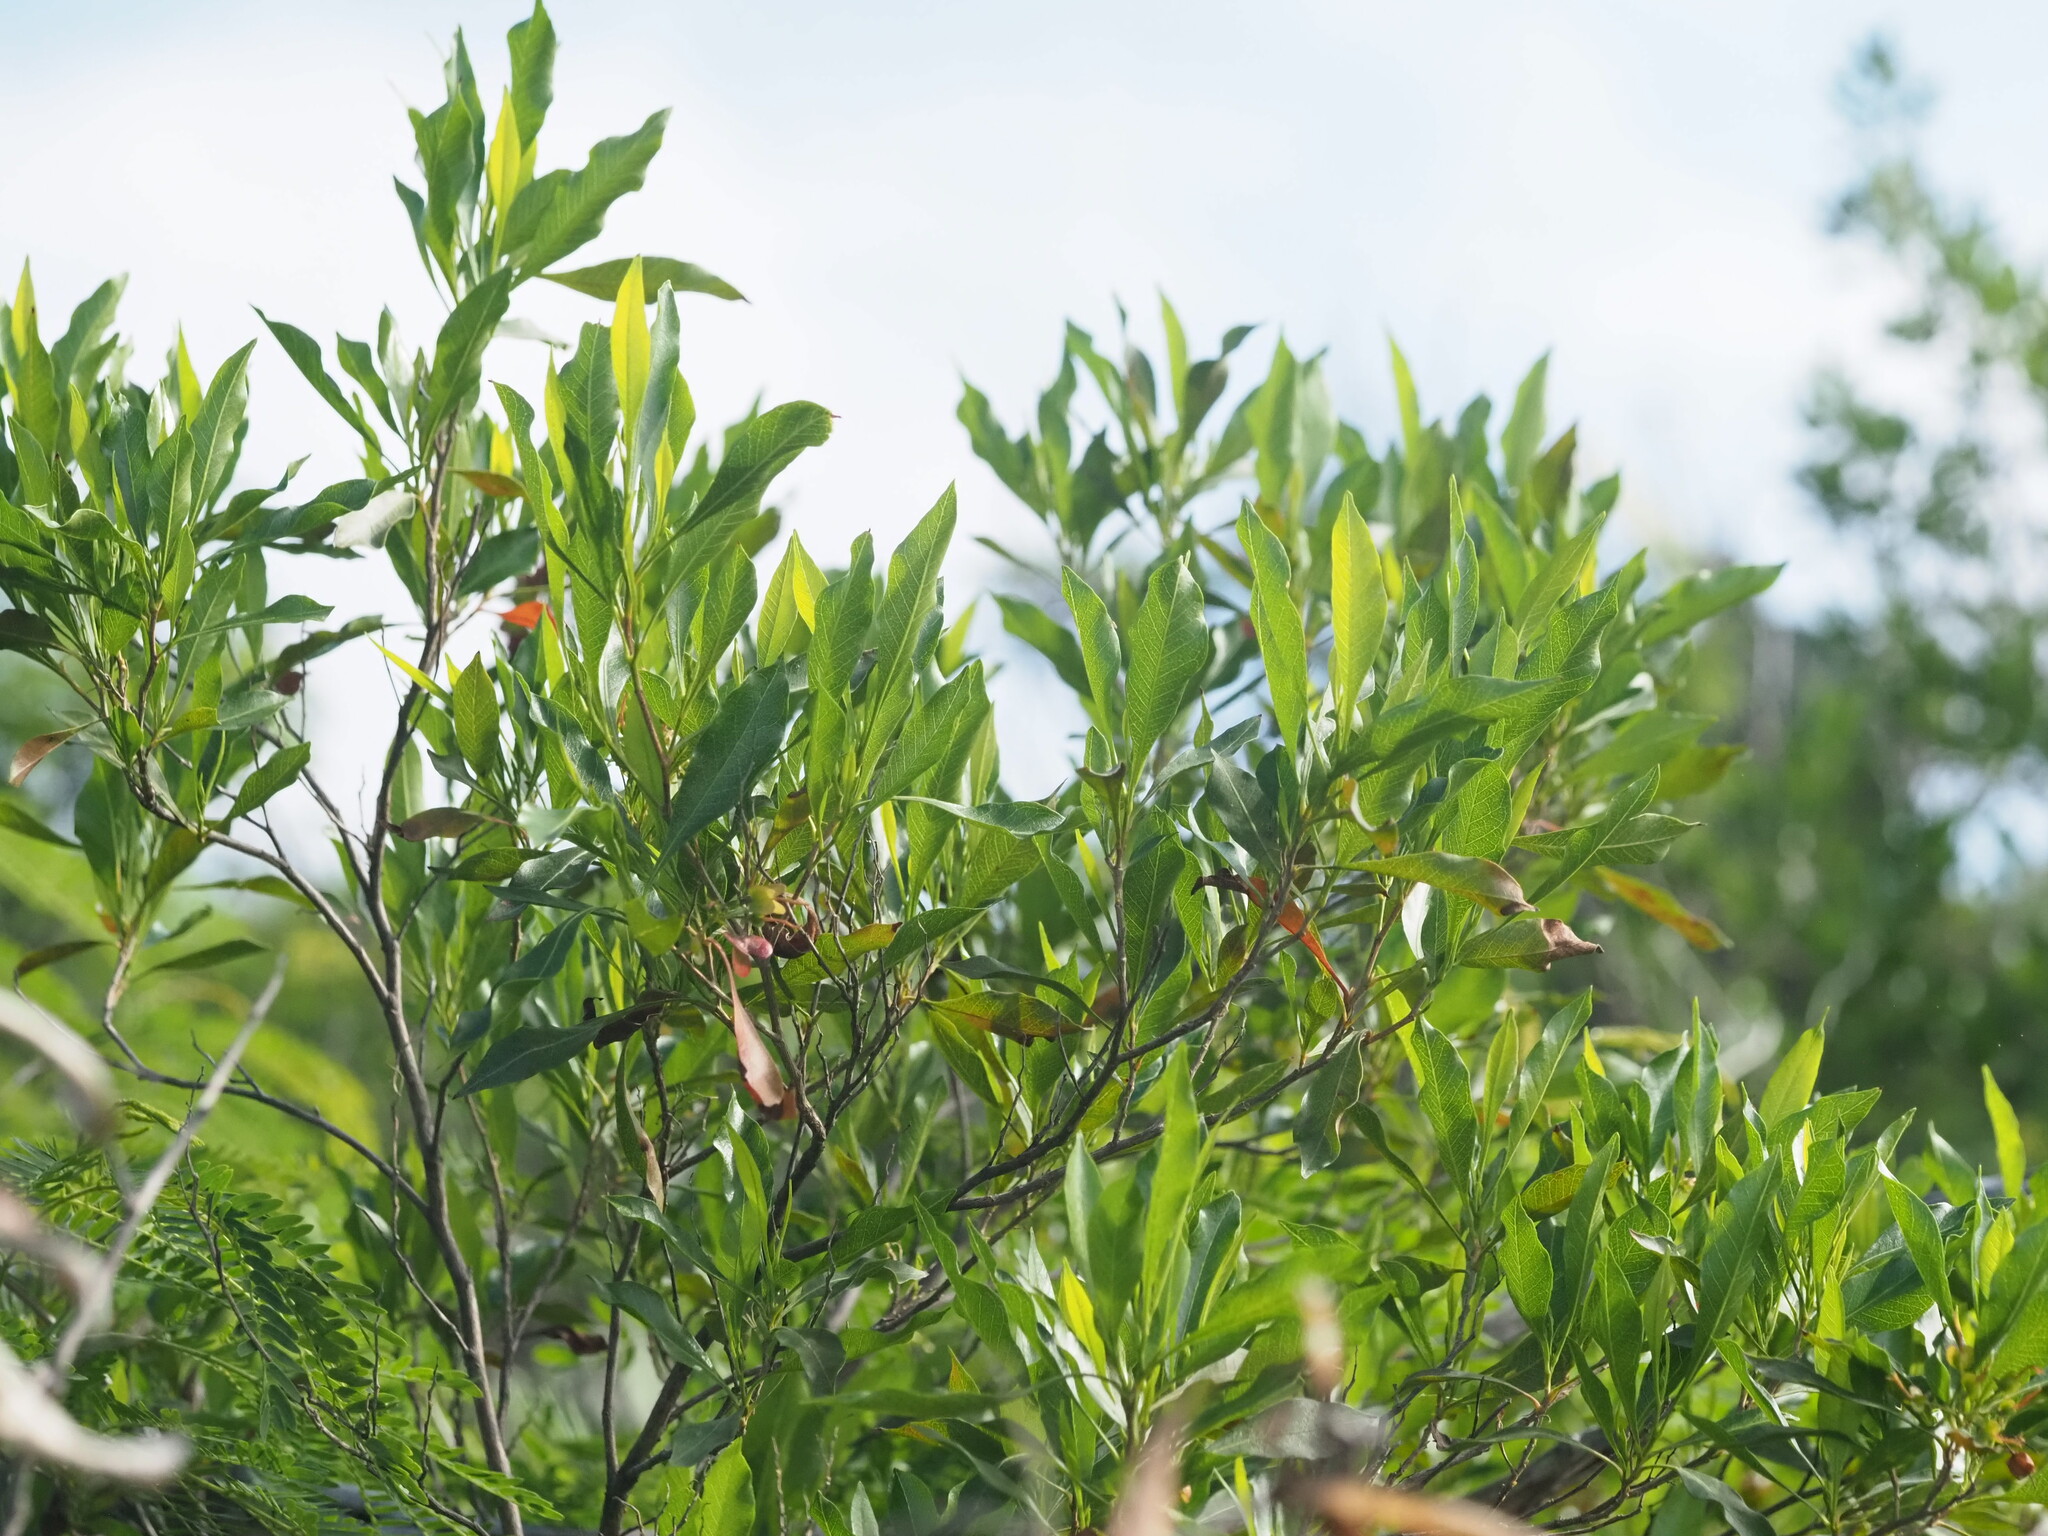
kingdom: Plantae
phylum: Tracheophyta
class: Magnoliopsida
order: Sapindales
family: Sapindaceae
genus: Dodonaea
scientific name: Dodonaea viscosa
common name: Hopbush
